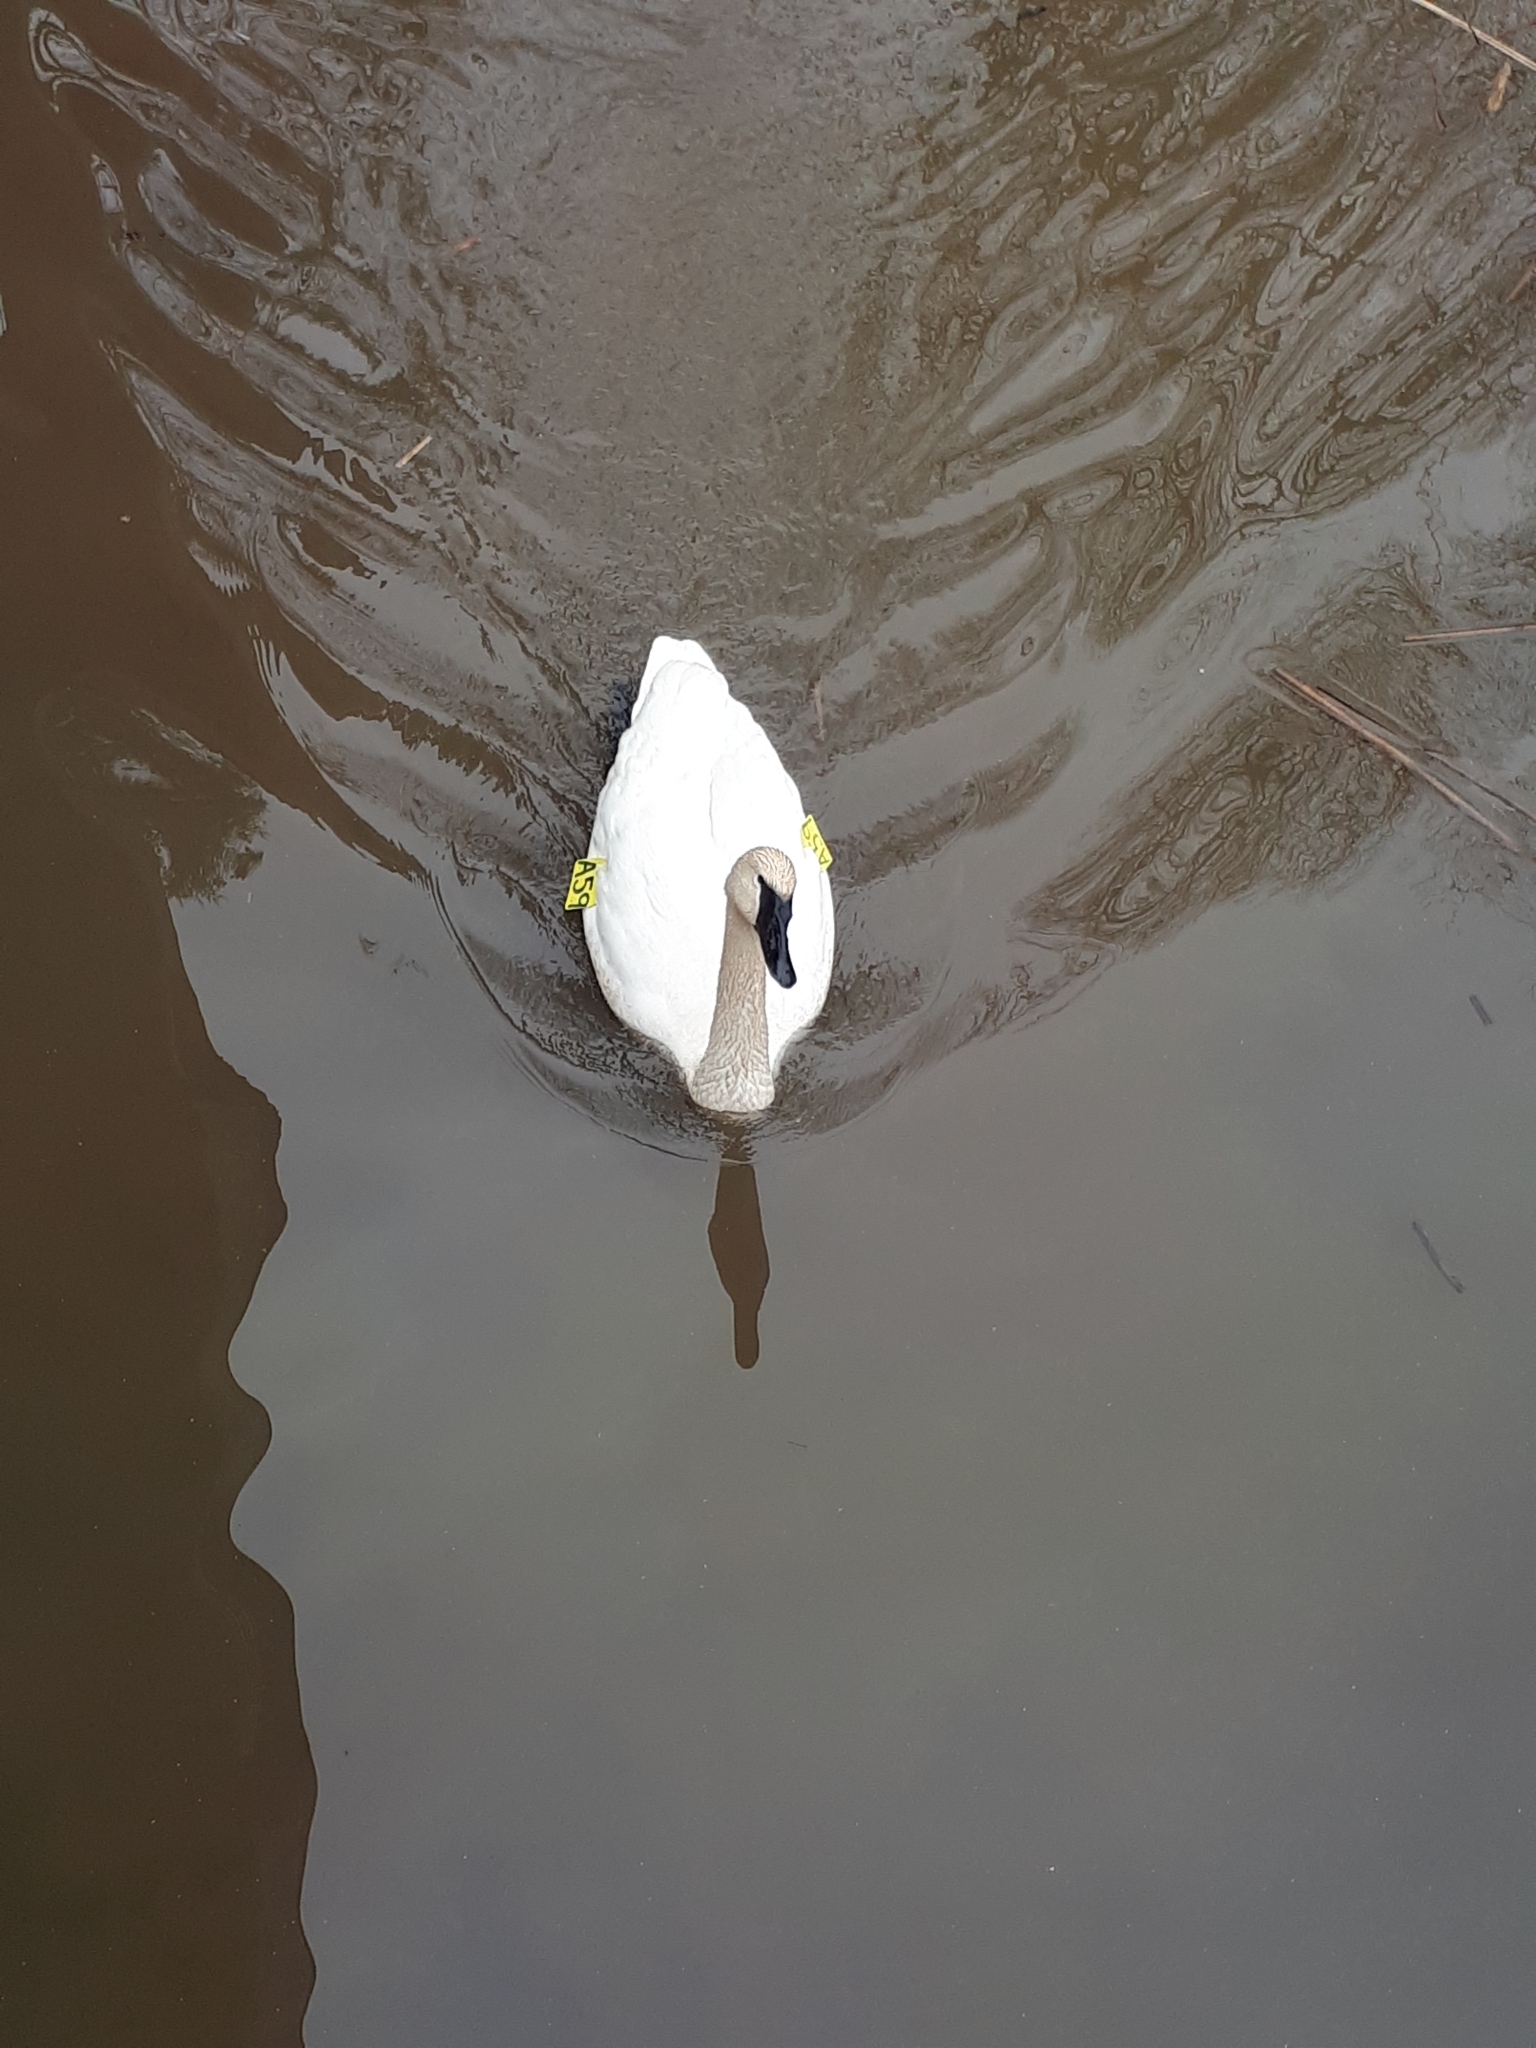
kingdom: Animalia
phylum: Chordata
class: Aves
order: Anseriformes
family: Anatidae
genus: Cygnus
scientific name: Cygnus buccinator
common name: Trumpeter swan
